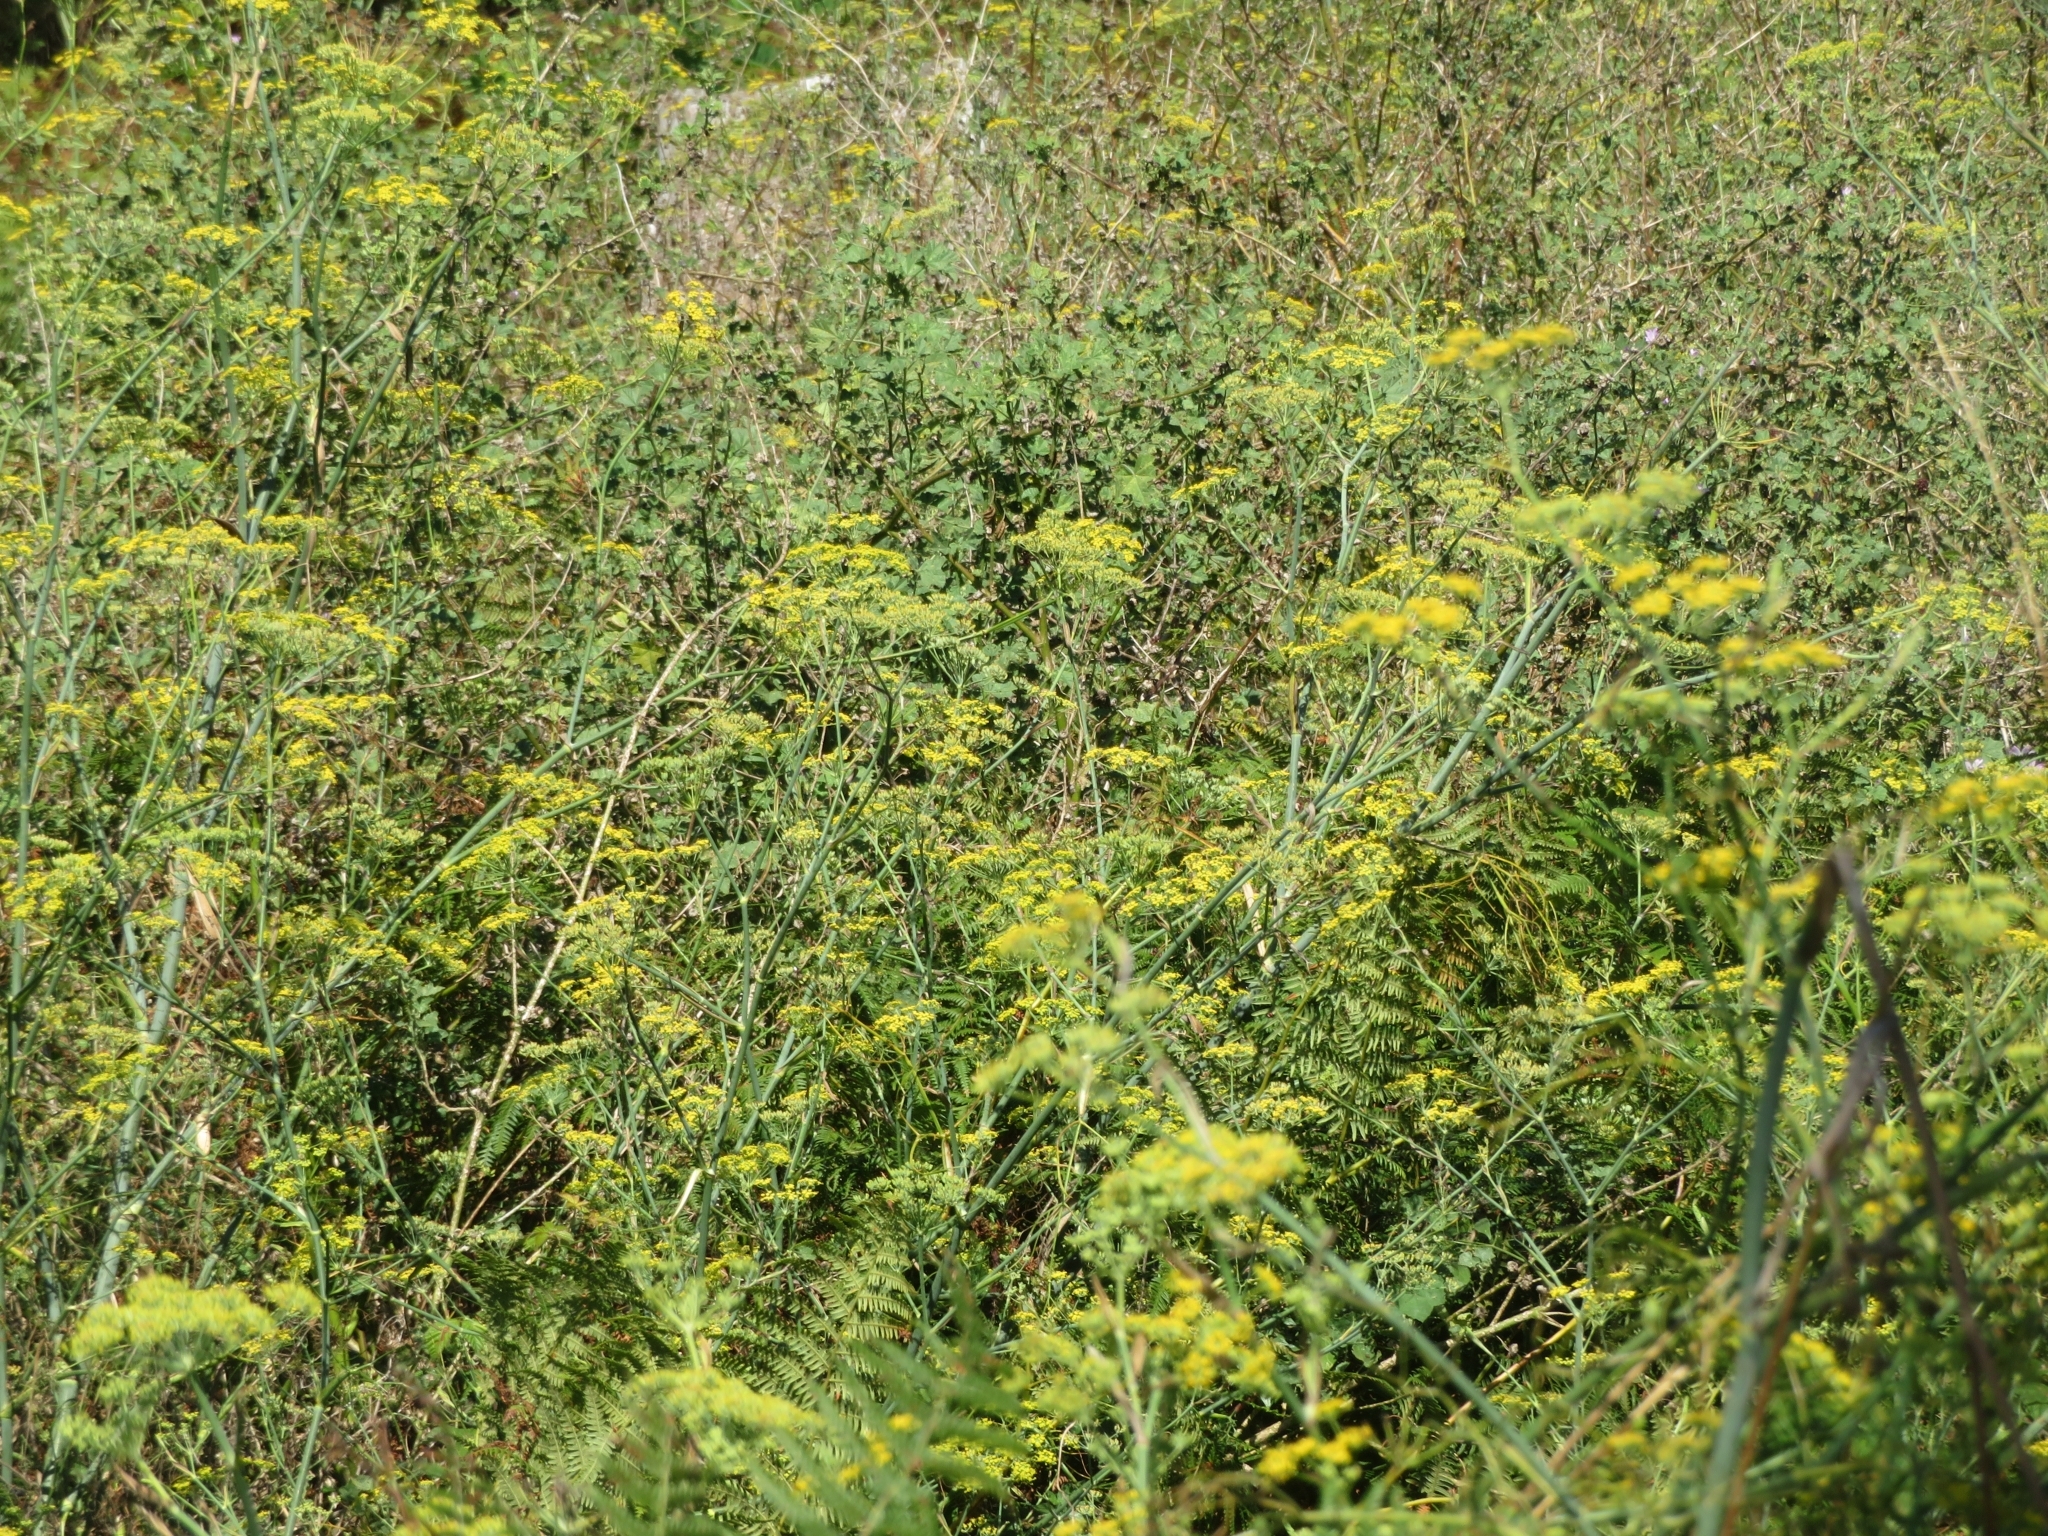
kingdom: Plantae
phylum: Tracheophyta
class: Magnoliopsida
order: Apiales
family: Apiaceae
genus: Foeniculum
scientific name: Foeniculum vulgare
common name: Fennel
